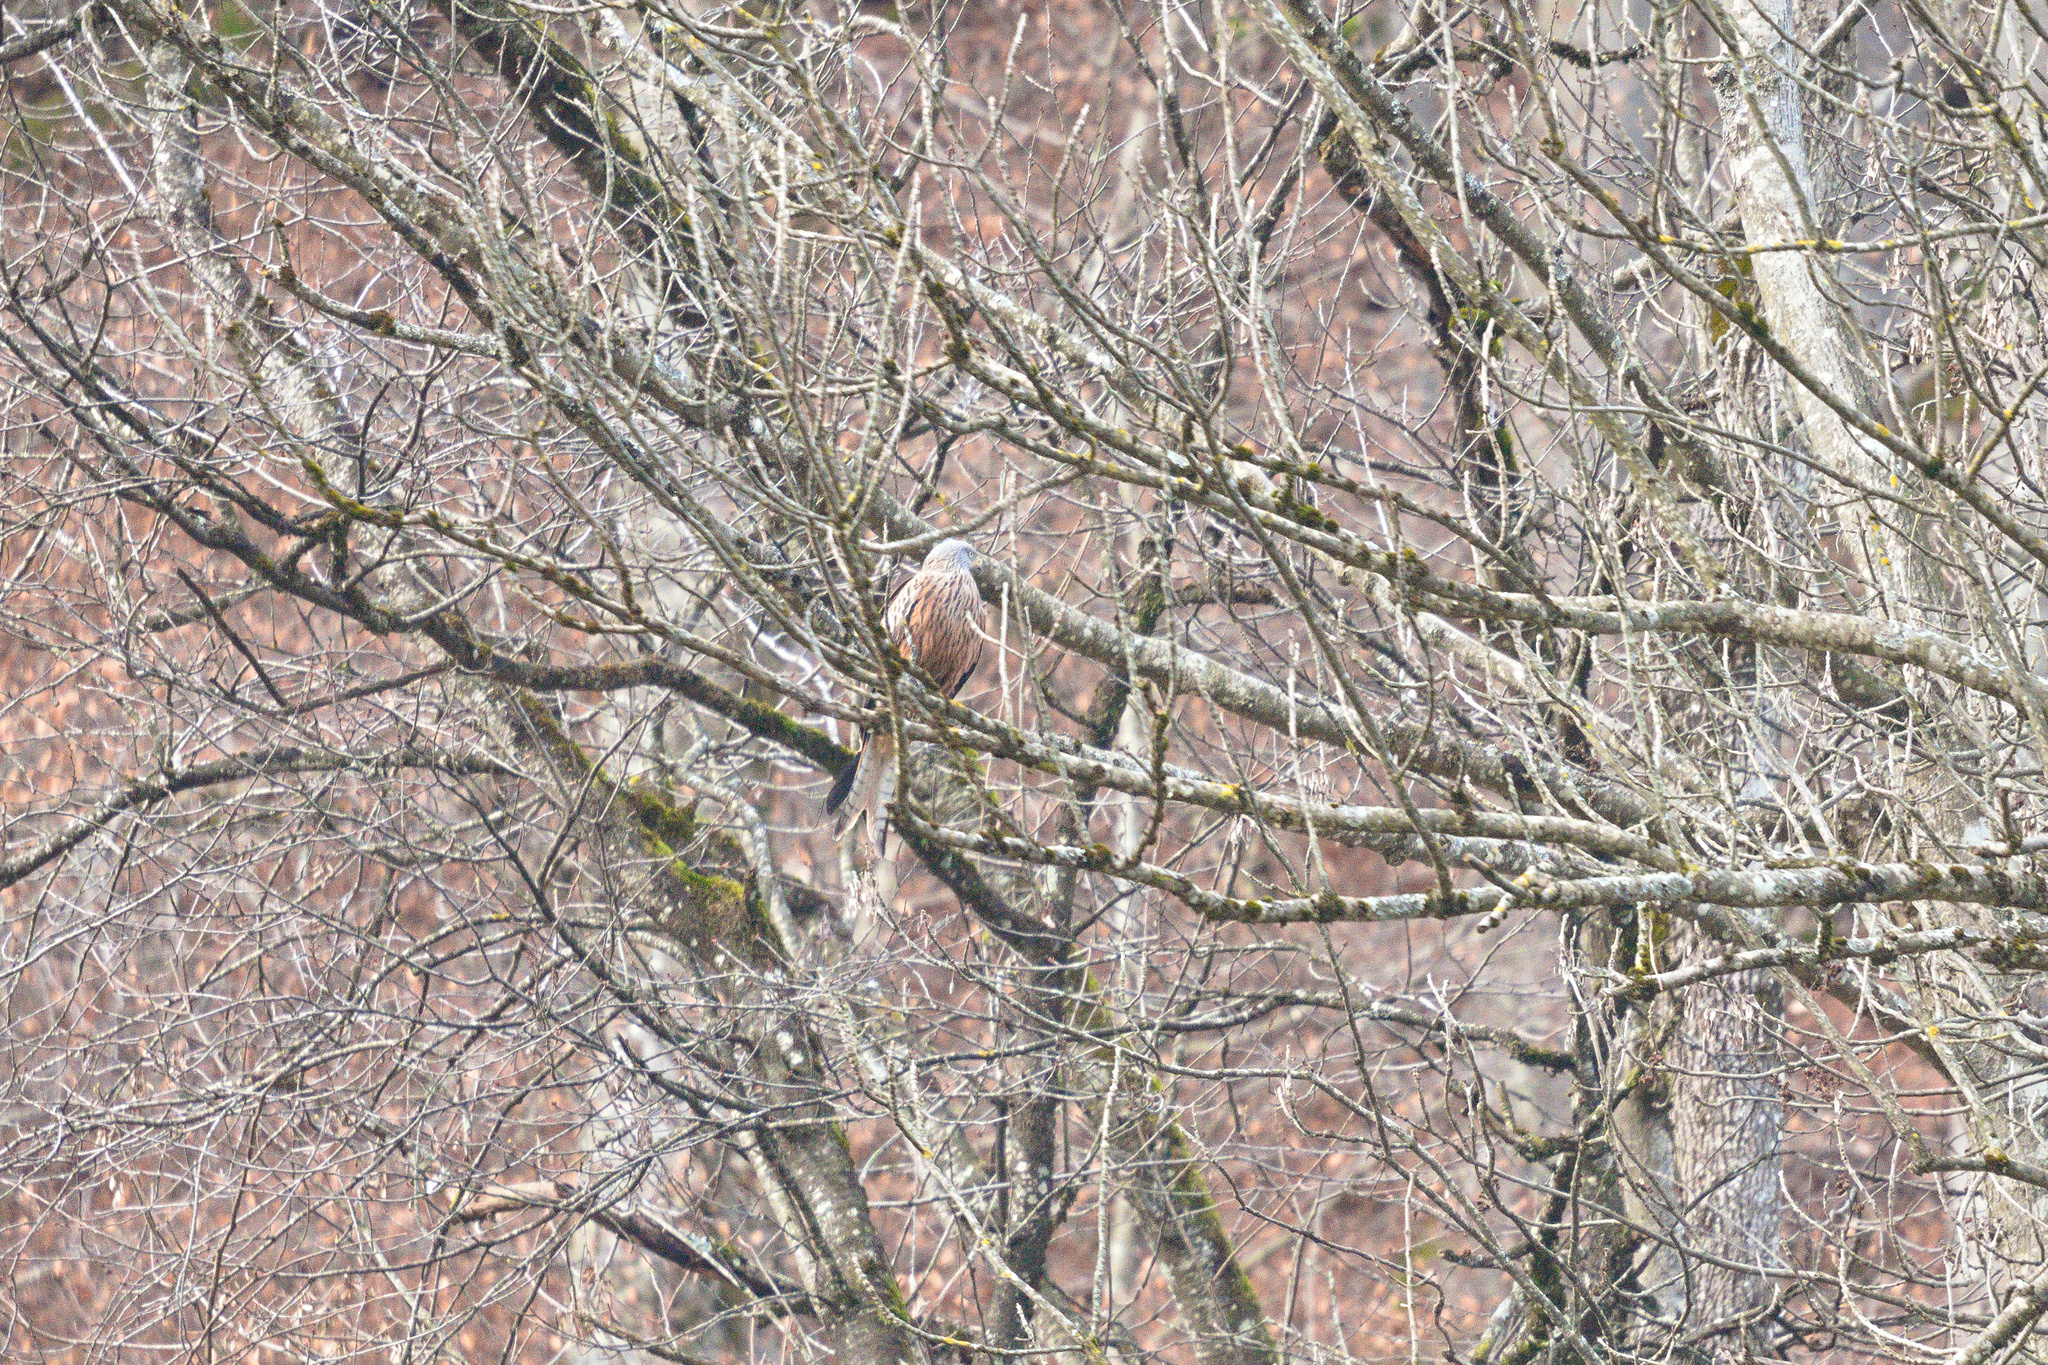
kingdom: Animalia
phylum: Chordata
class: Aves
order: Accipitriformes
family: Accipitridae
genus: Milvus
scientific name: Milvus milvus
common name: Red kite
